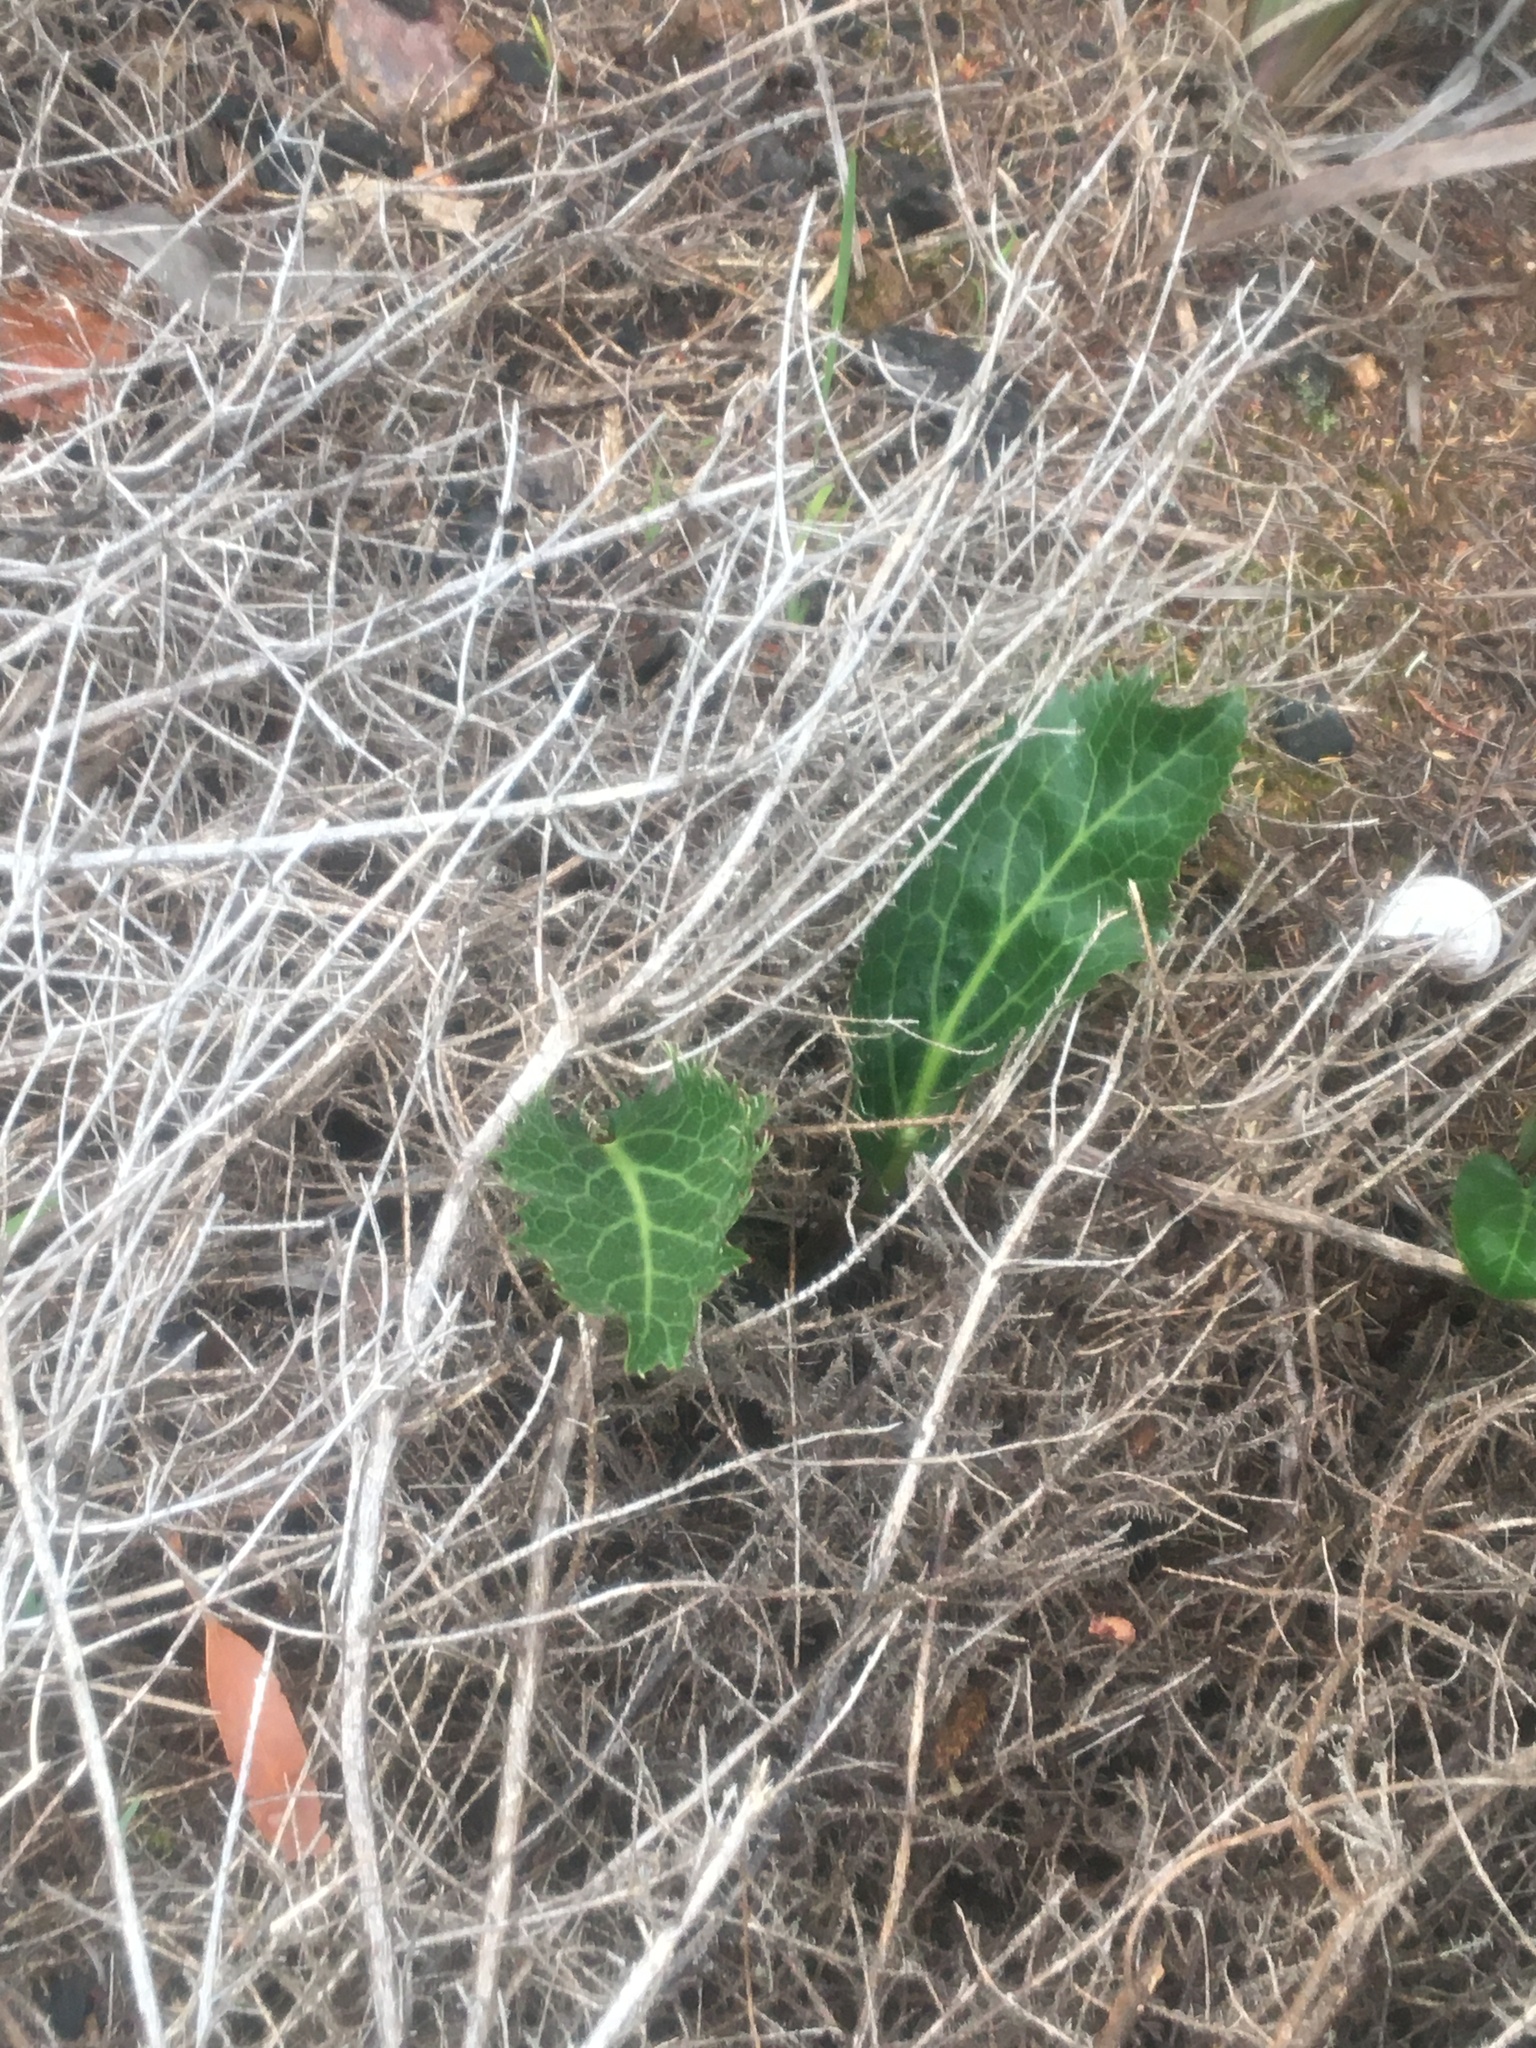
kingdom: Plantae
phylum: Tracheophyta
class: Magnoliopsida
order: Apiales
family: Apiaceae
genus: Lichtensteinia
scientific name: Lichtensteinia lacera
